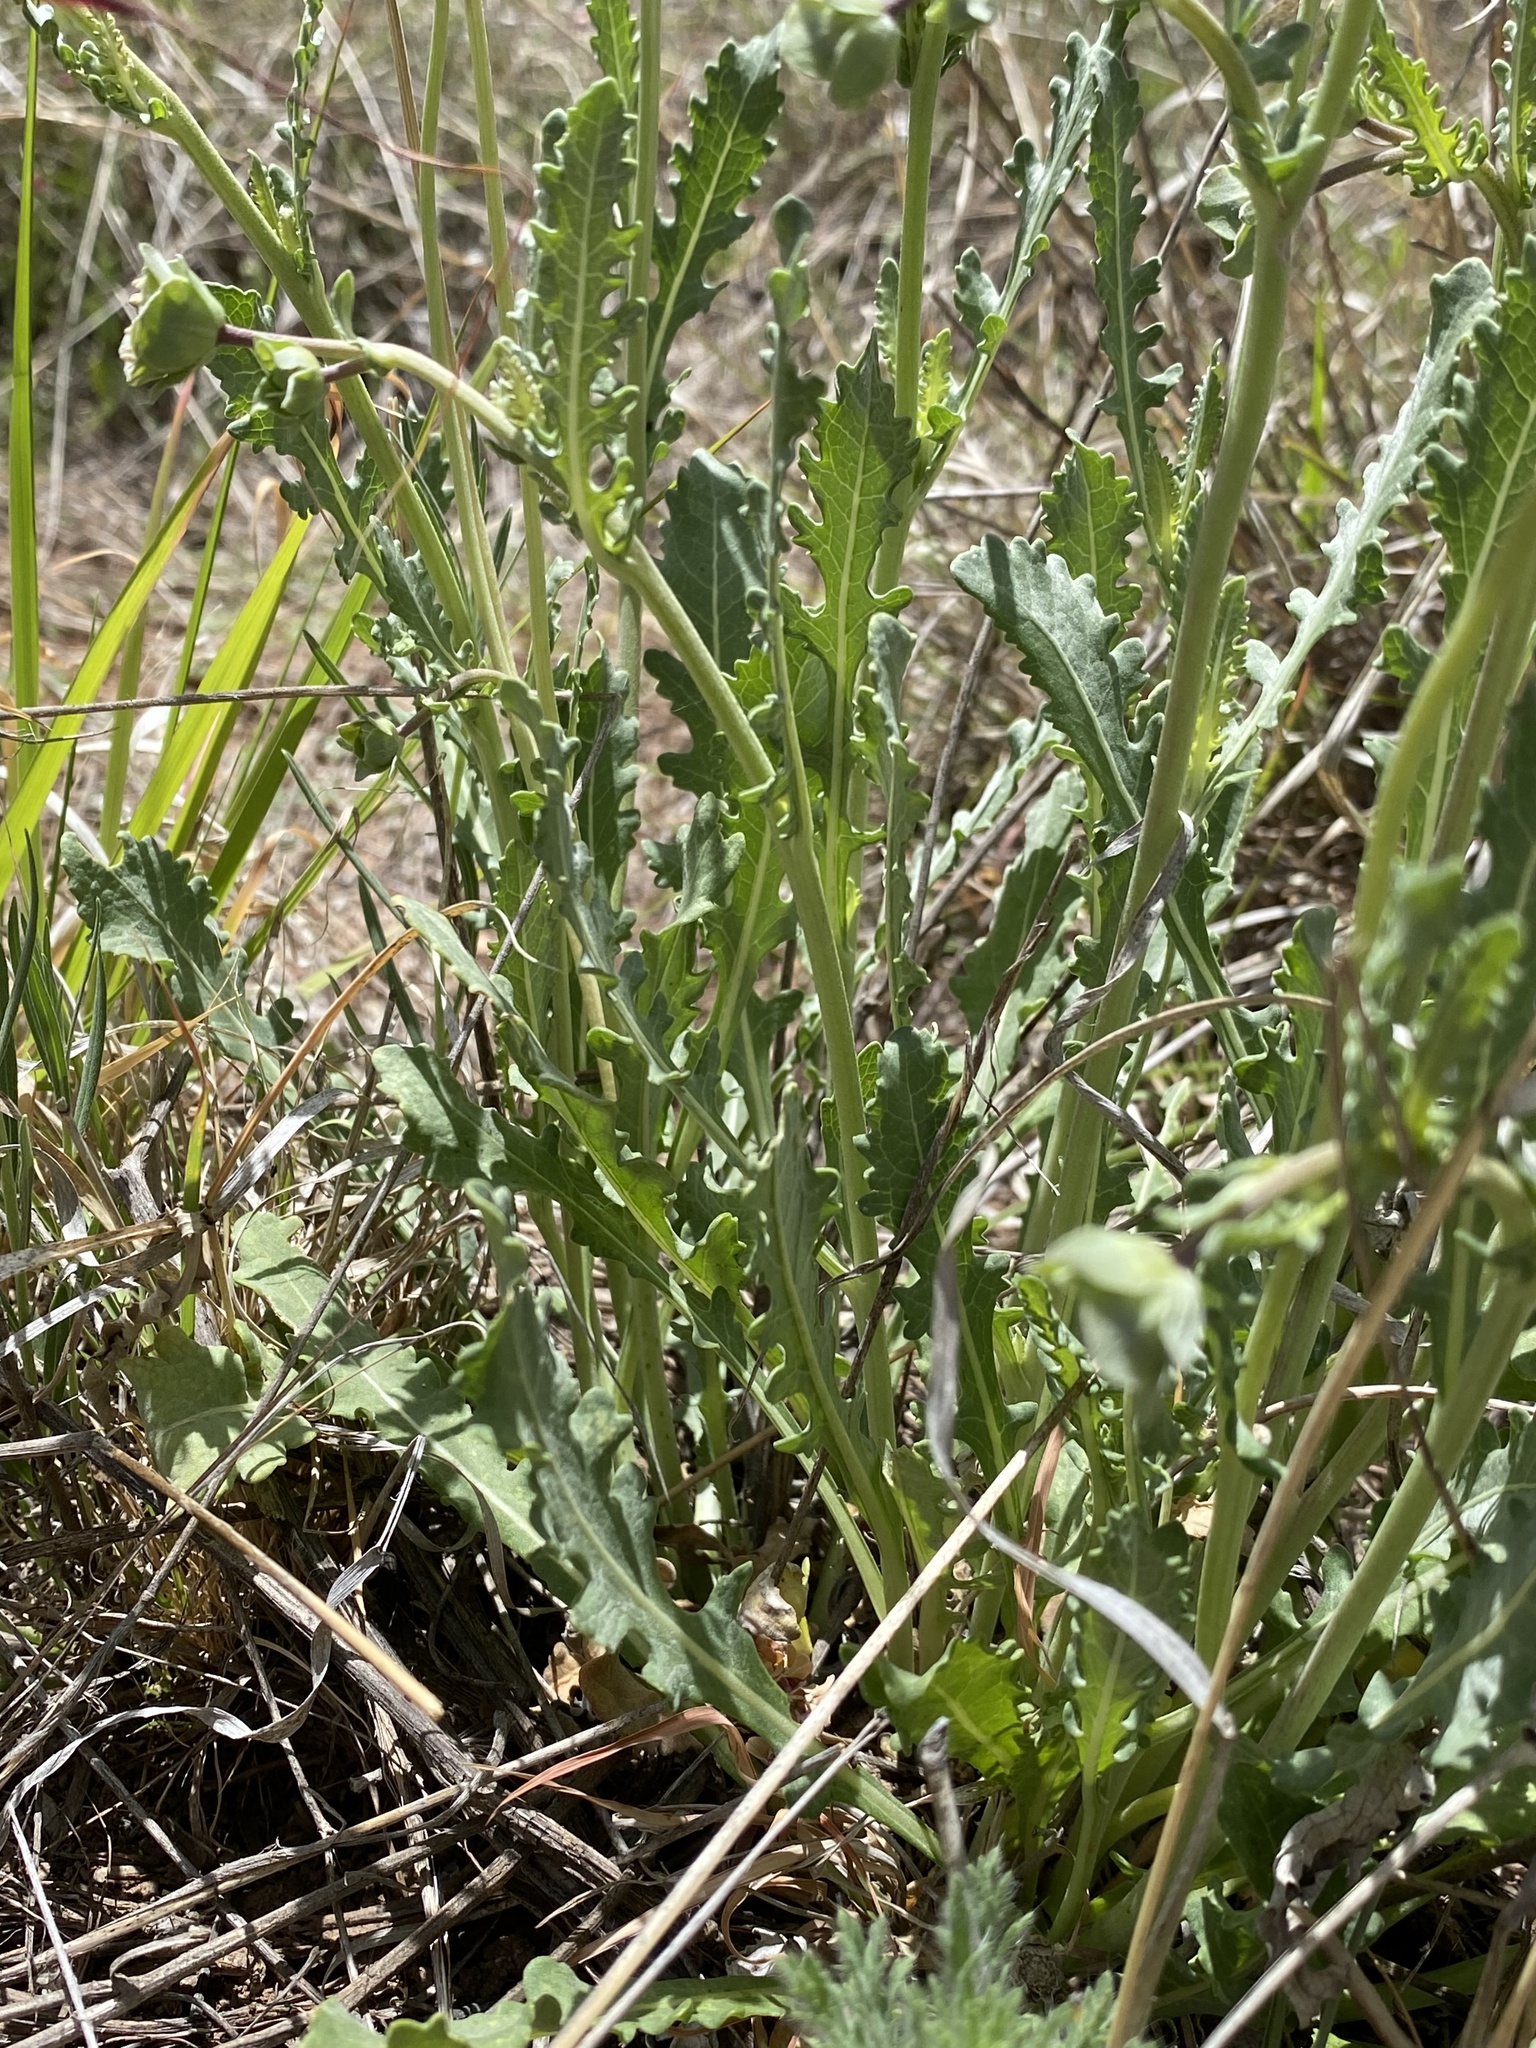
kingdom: Plantae
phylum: Tracheophyta
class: Magnoliopsida
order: Asterales
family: Asteraceae
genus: Berlandiera
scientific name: Berlandiera lyrata
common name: Chocolate-flower
